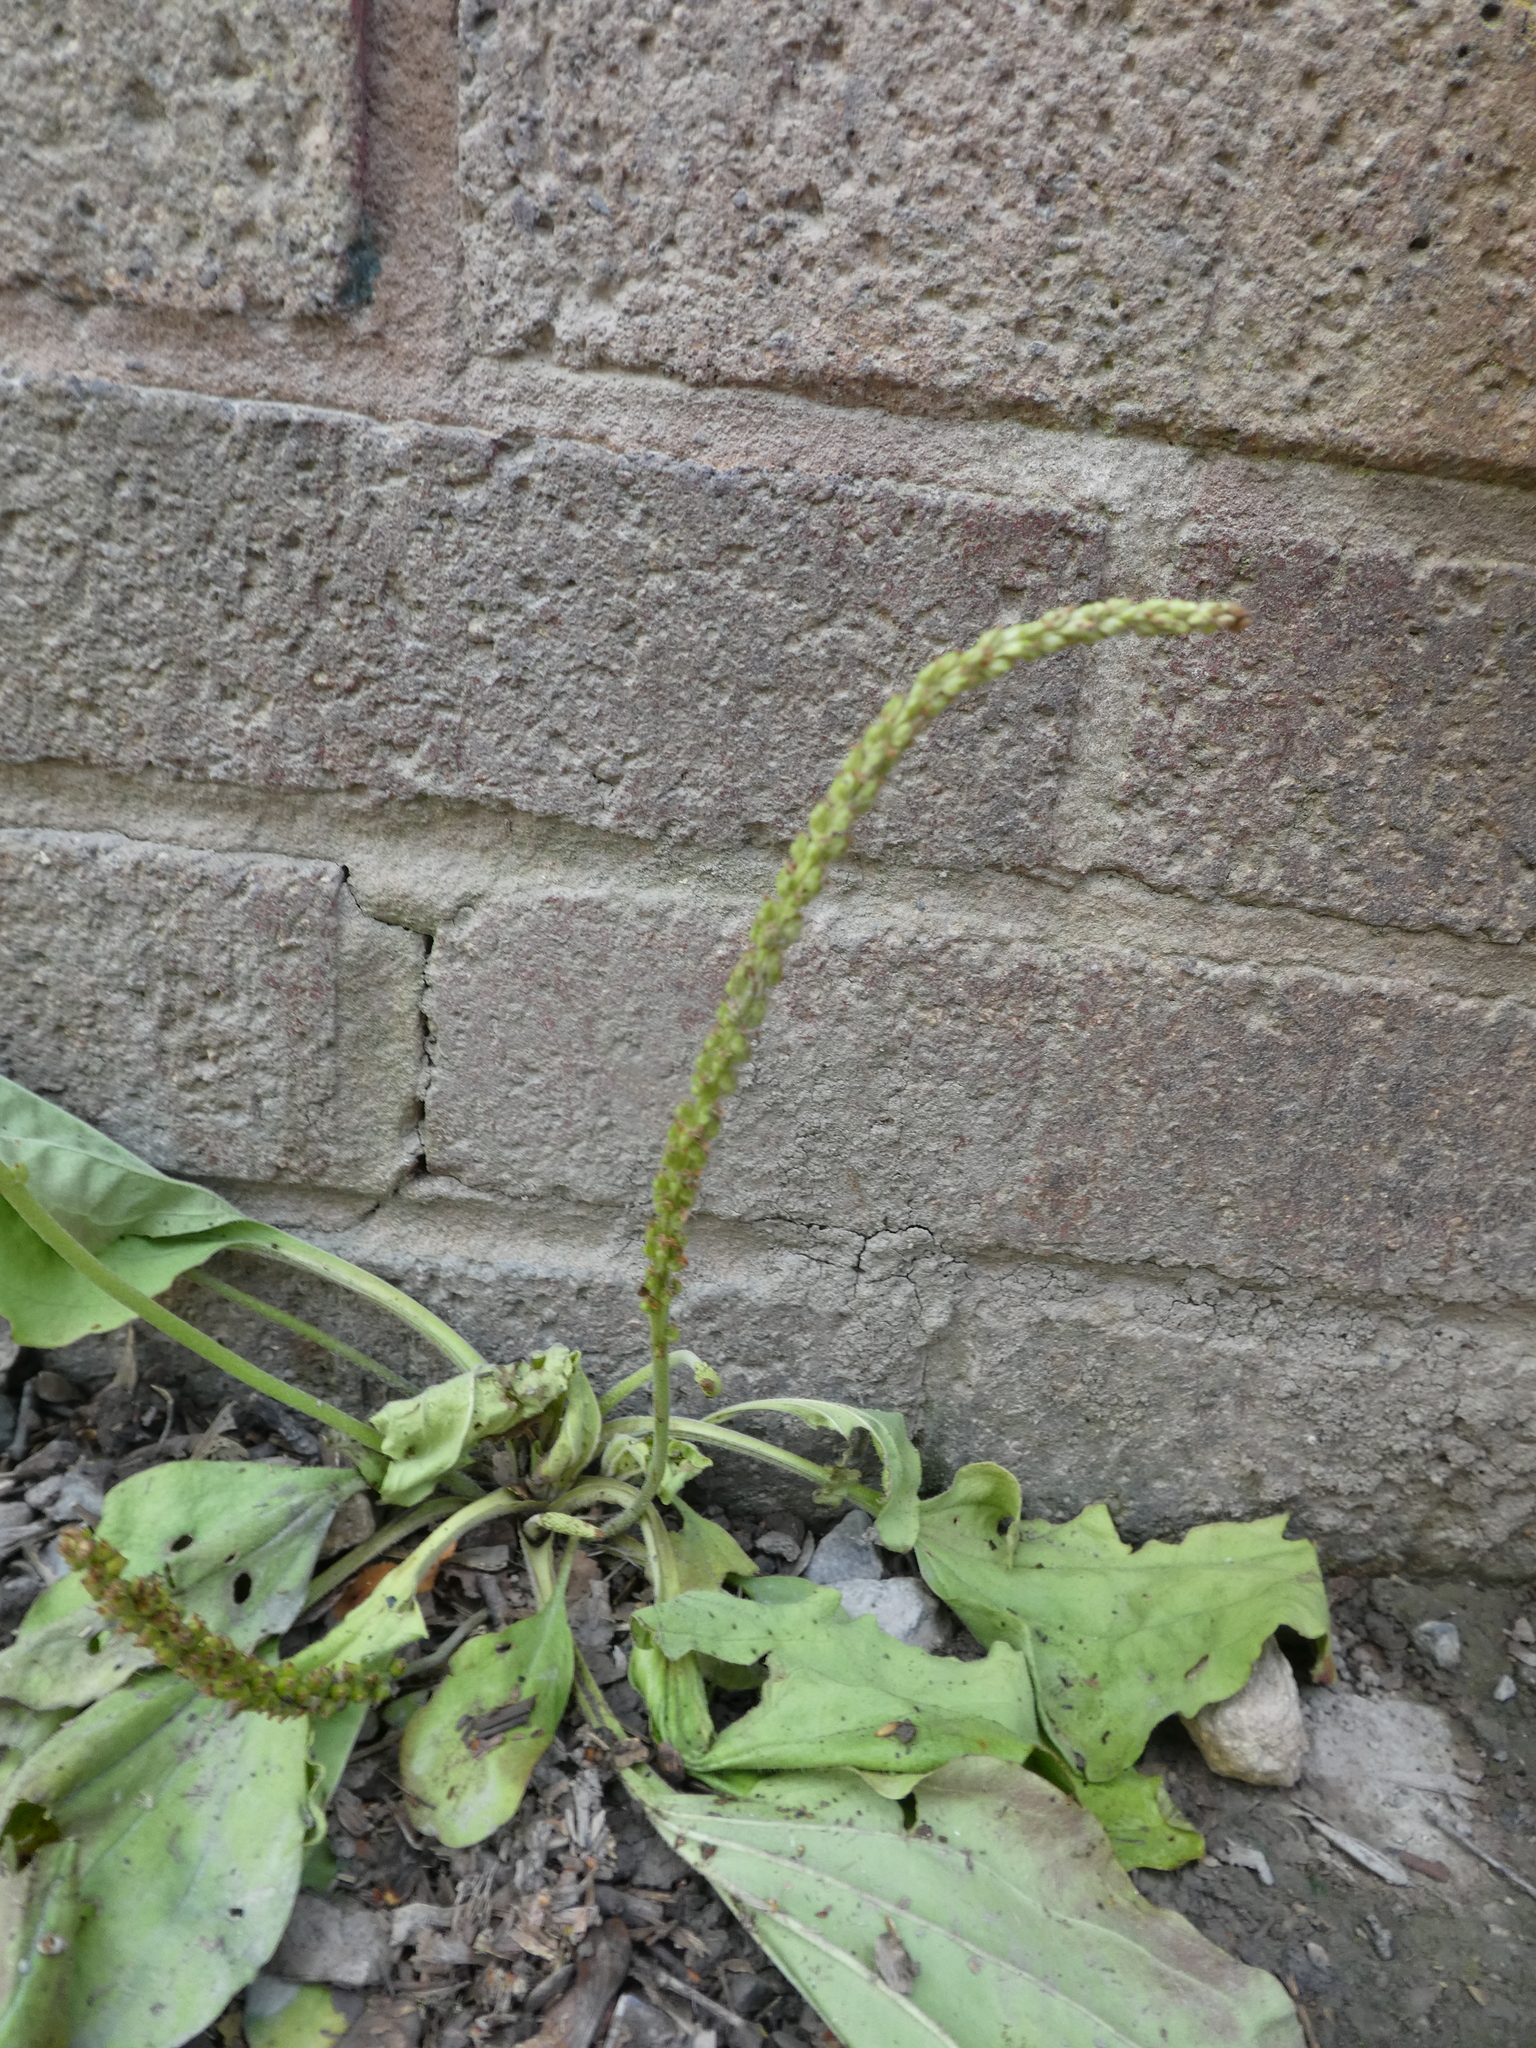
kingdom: Plantae
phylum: Tracheophyta
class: Magnoliopsida
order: Lamiales
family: Plantaginaceae
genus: Plantago
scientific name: Plantago major
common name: Common plantain
